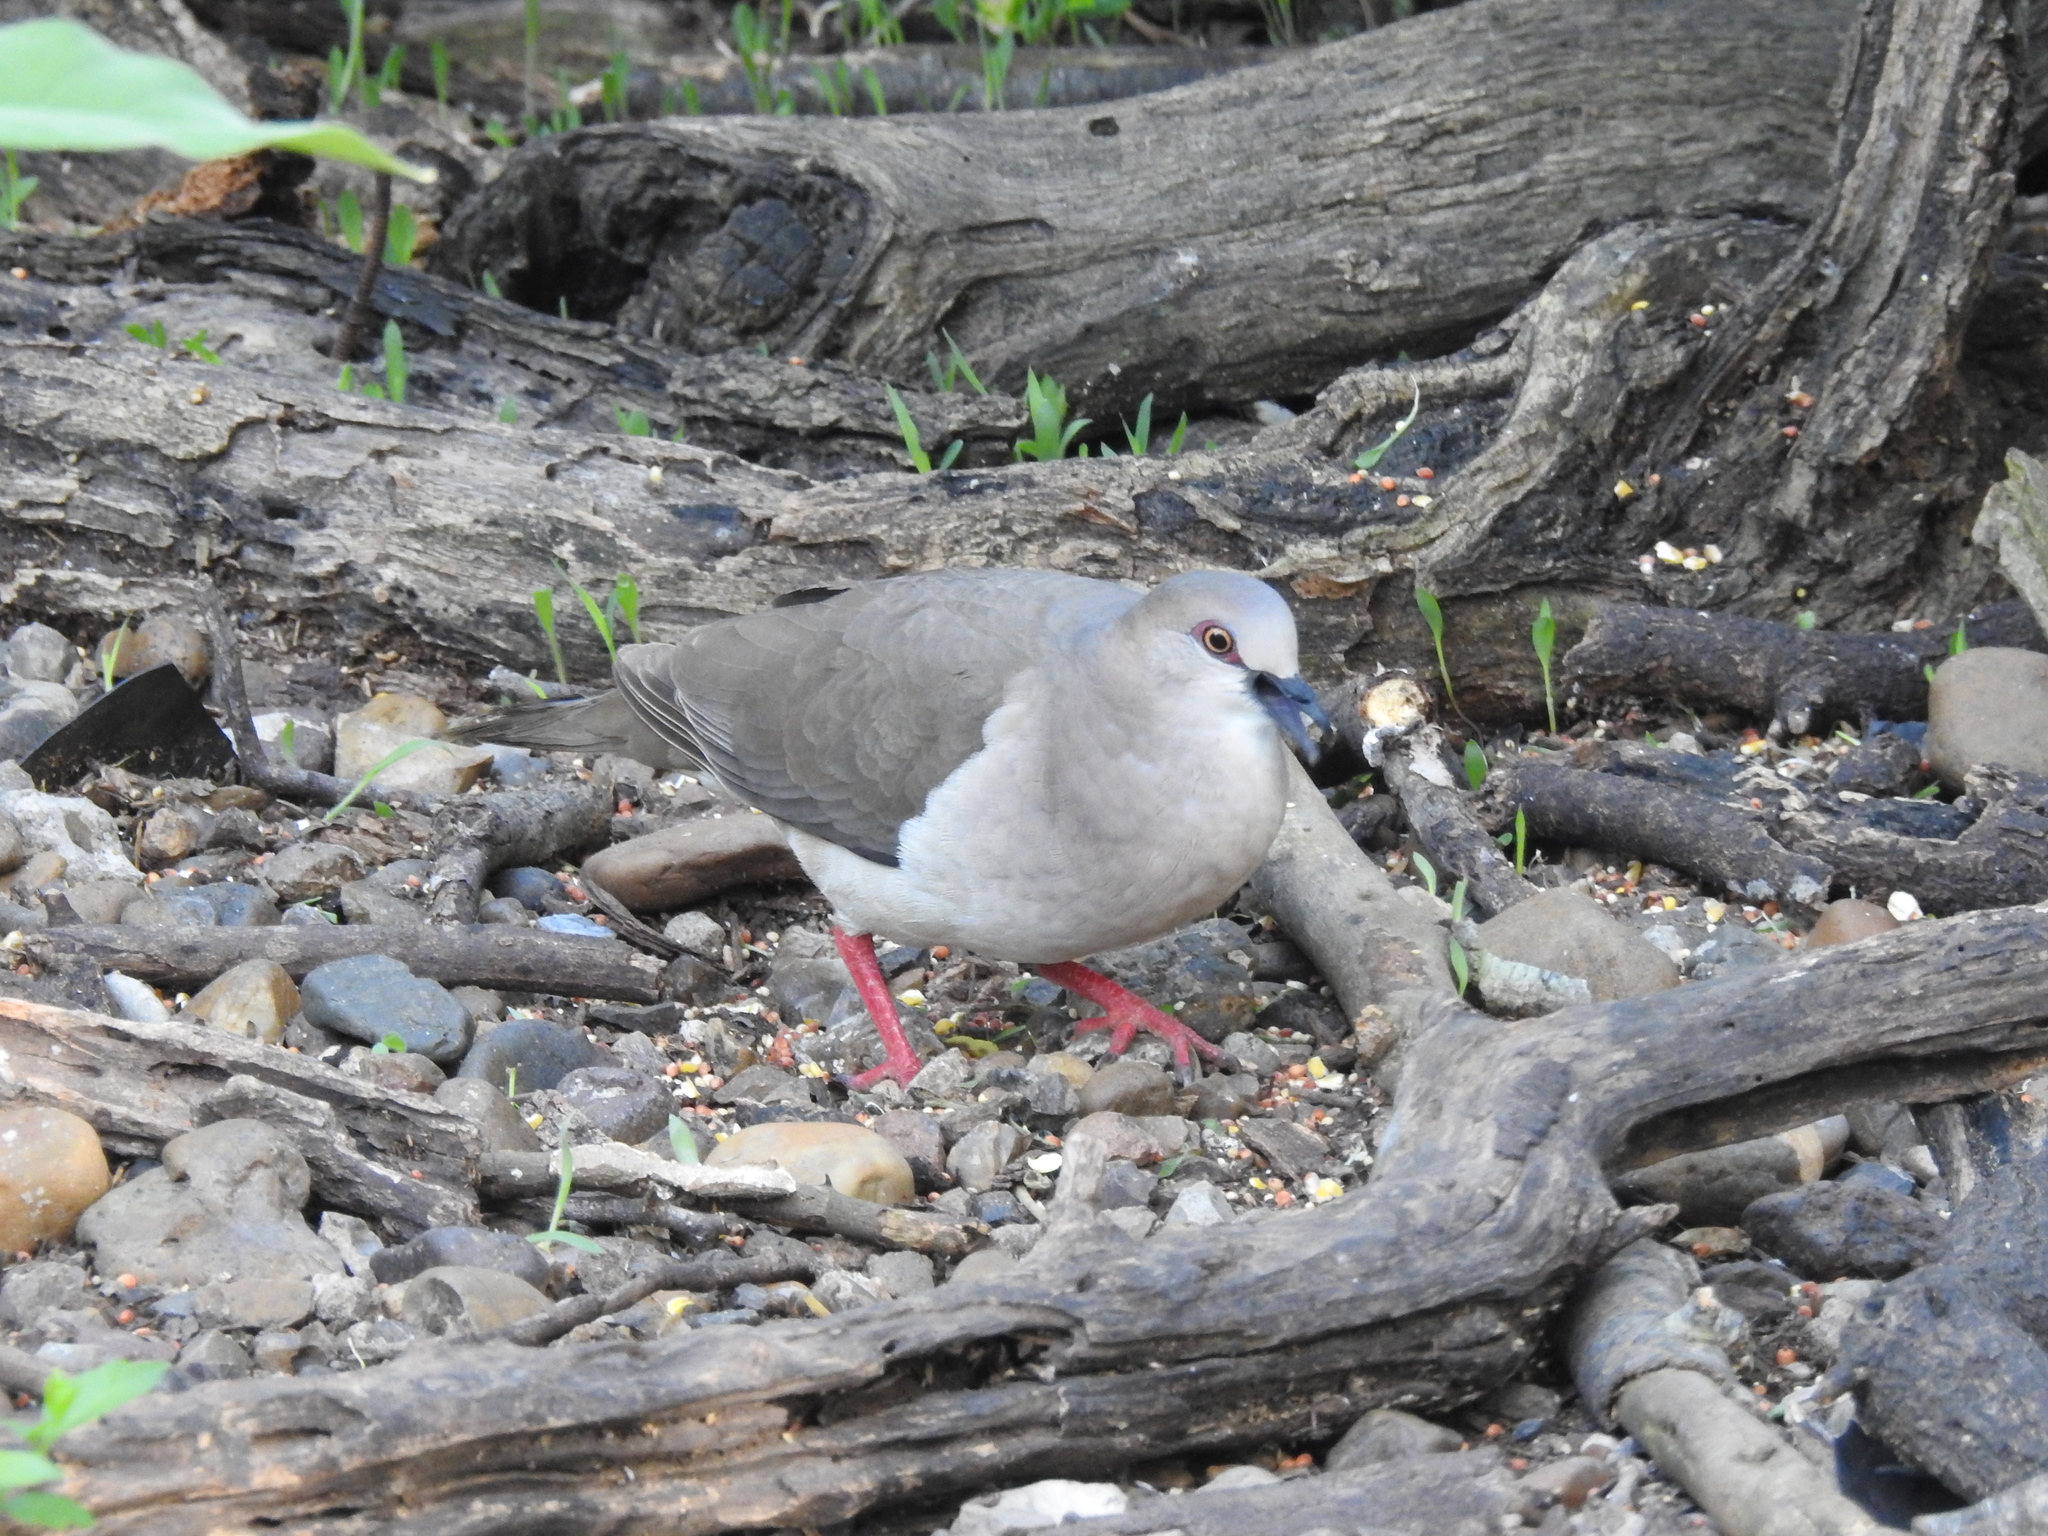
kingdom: Animalia
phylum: Chordata
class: Aves
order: Columbiformes
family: Columbidae
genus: Leptotila
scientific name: Leptotila verreauxi
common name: White-tipped dove
